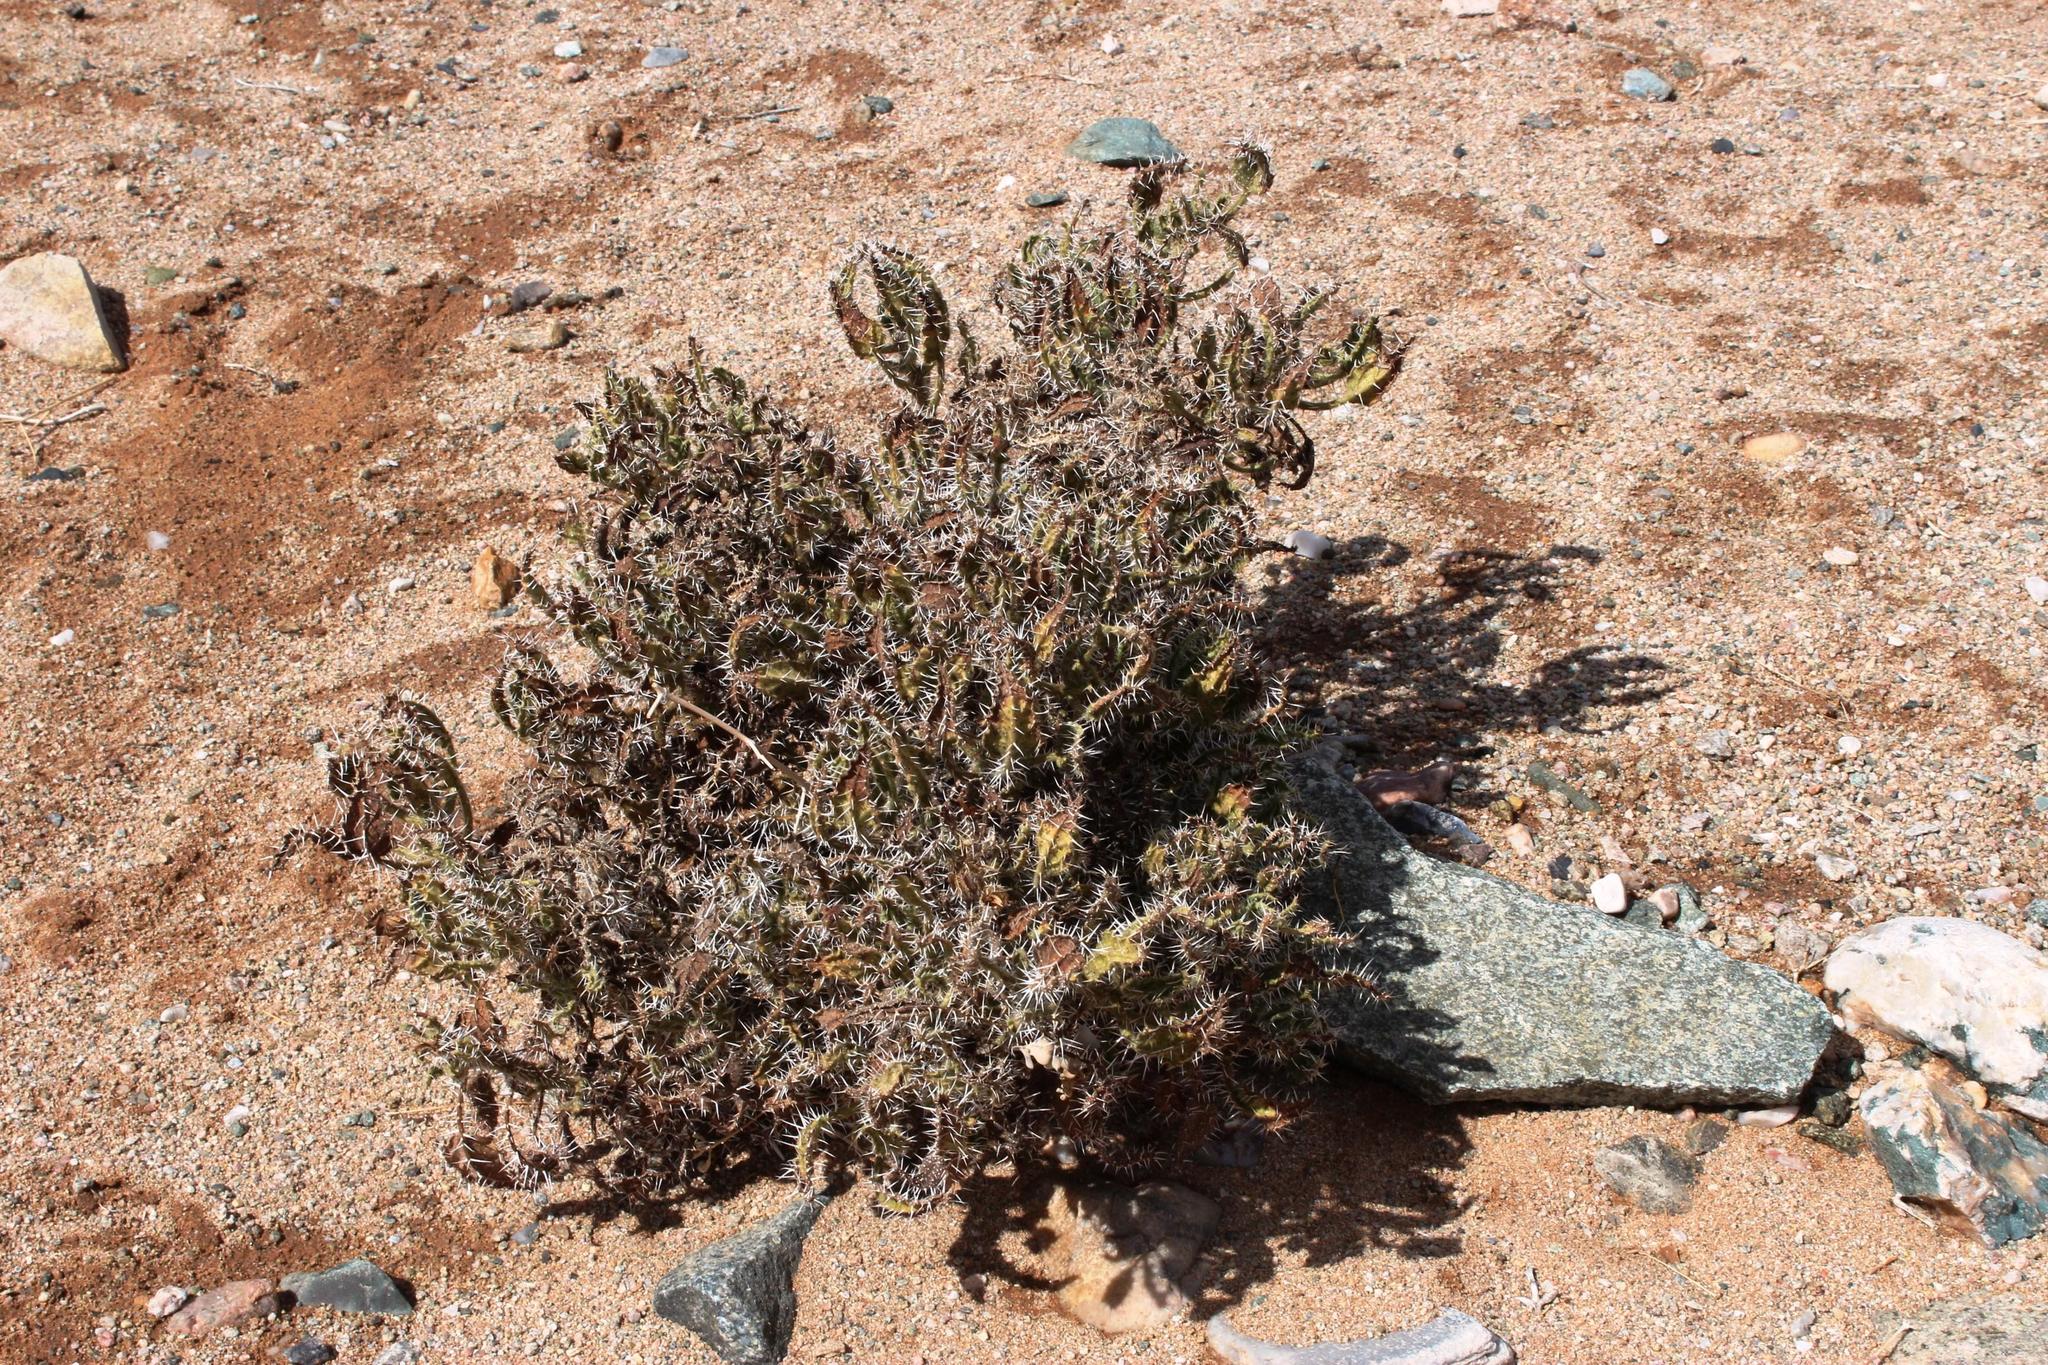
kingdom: Plantae
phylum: Tracheophyta
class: Magnoliopsida
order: Boraginales
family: Boraginaceae
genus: Codon
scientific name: Codon royenii
